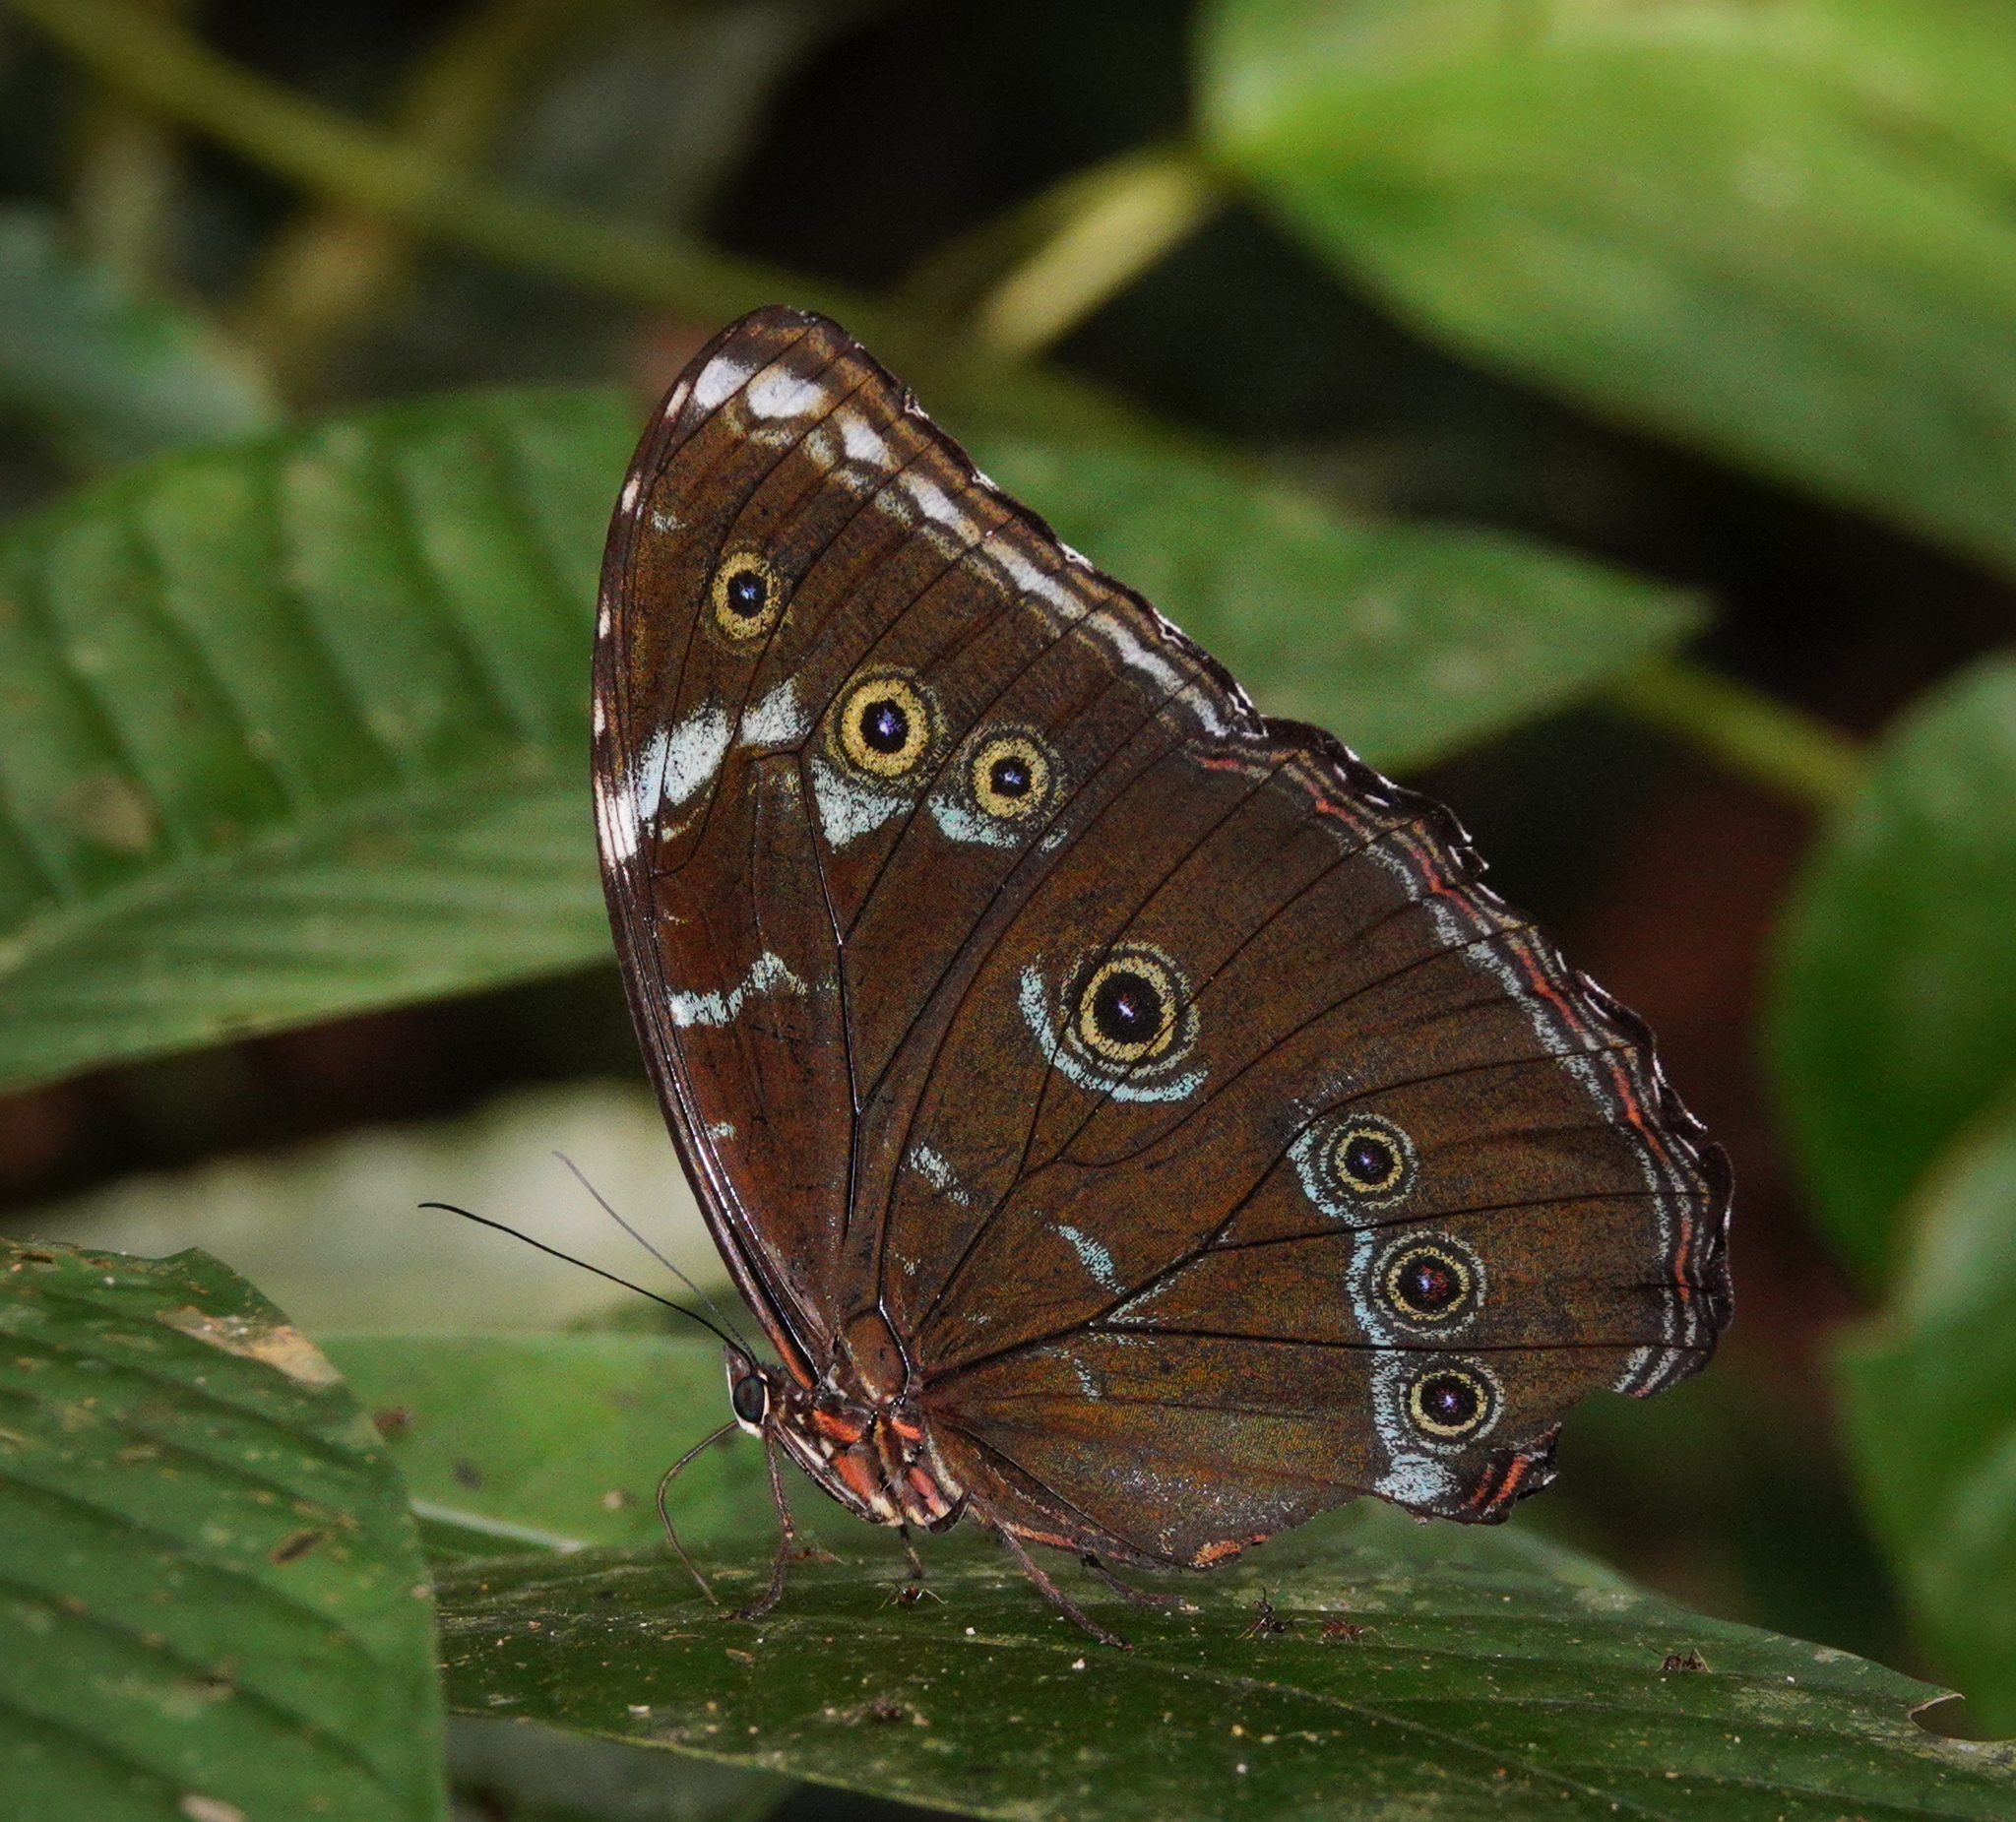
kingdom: Animalia
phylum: Arthropoda
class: Insecta
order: Lepidoptera
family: Nymphalidae
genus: Morpho
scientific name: Morpho achilles
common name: Achilles morpho
